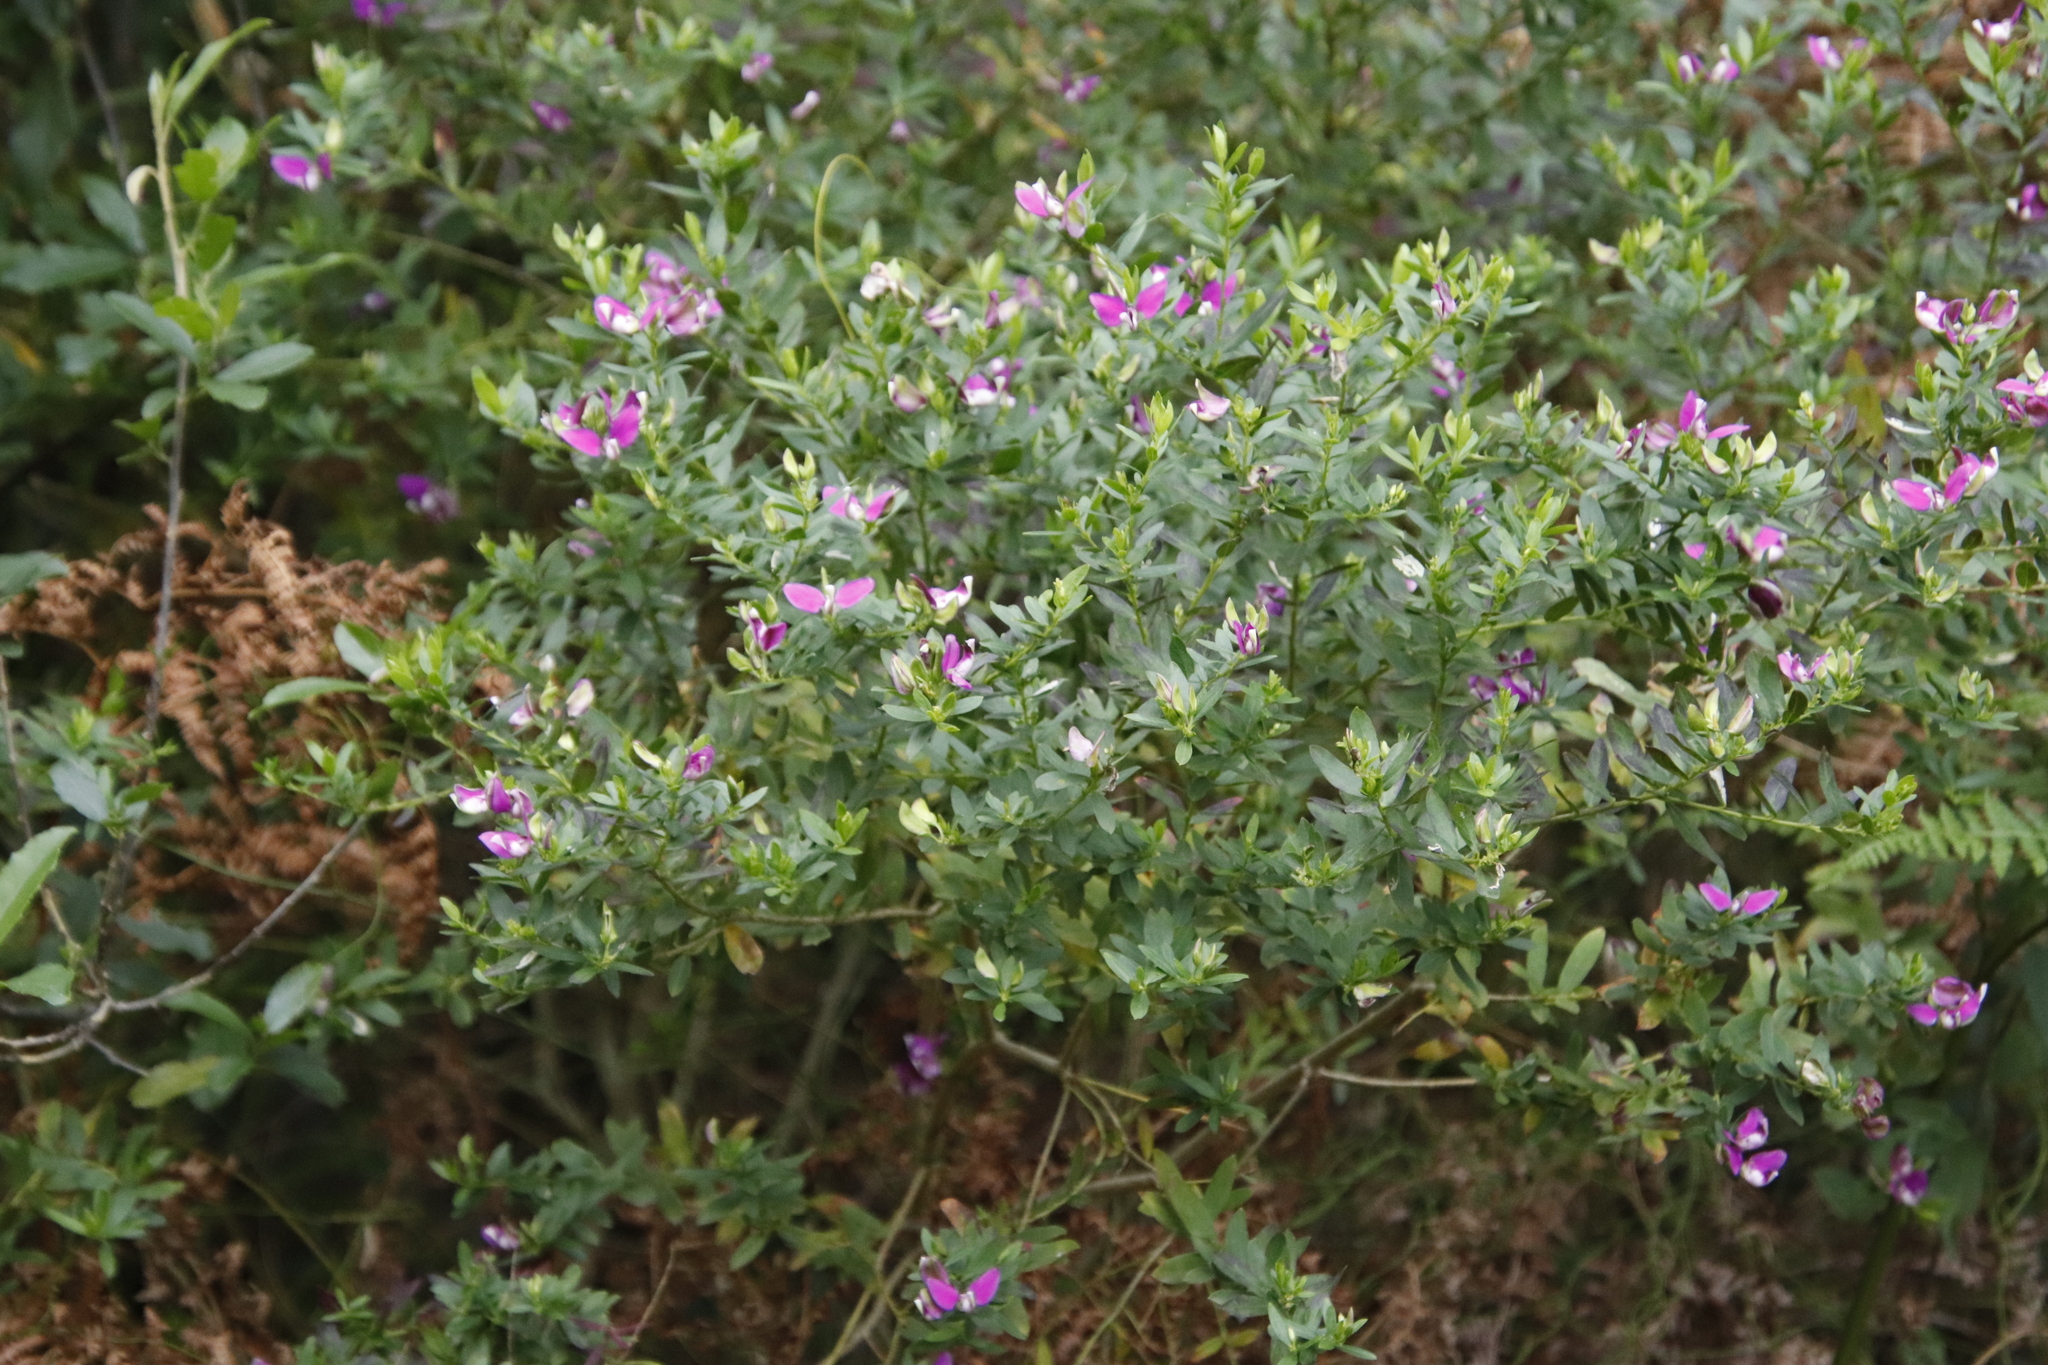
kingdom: Plantae
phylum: Tracheophyta
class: Magnoliopsida
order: Fabales
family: Polygalaceae
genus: Polygala
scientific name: Polygala myrtifolia
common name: Myrtle-leaf milkwort
